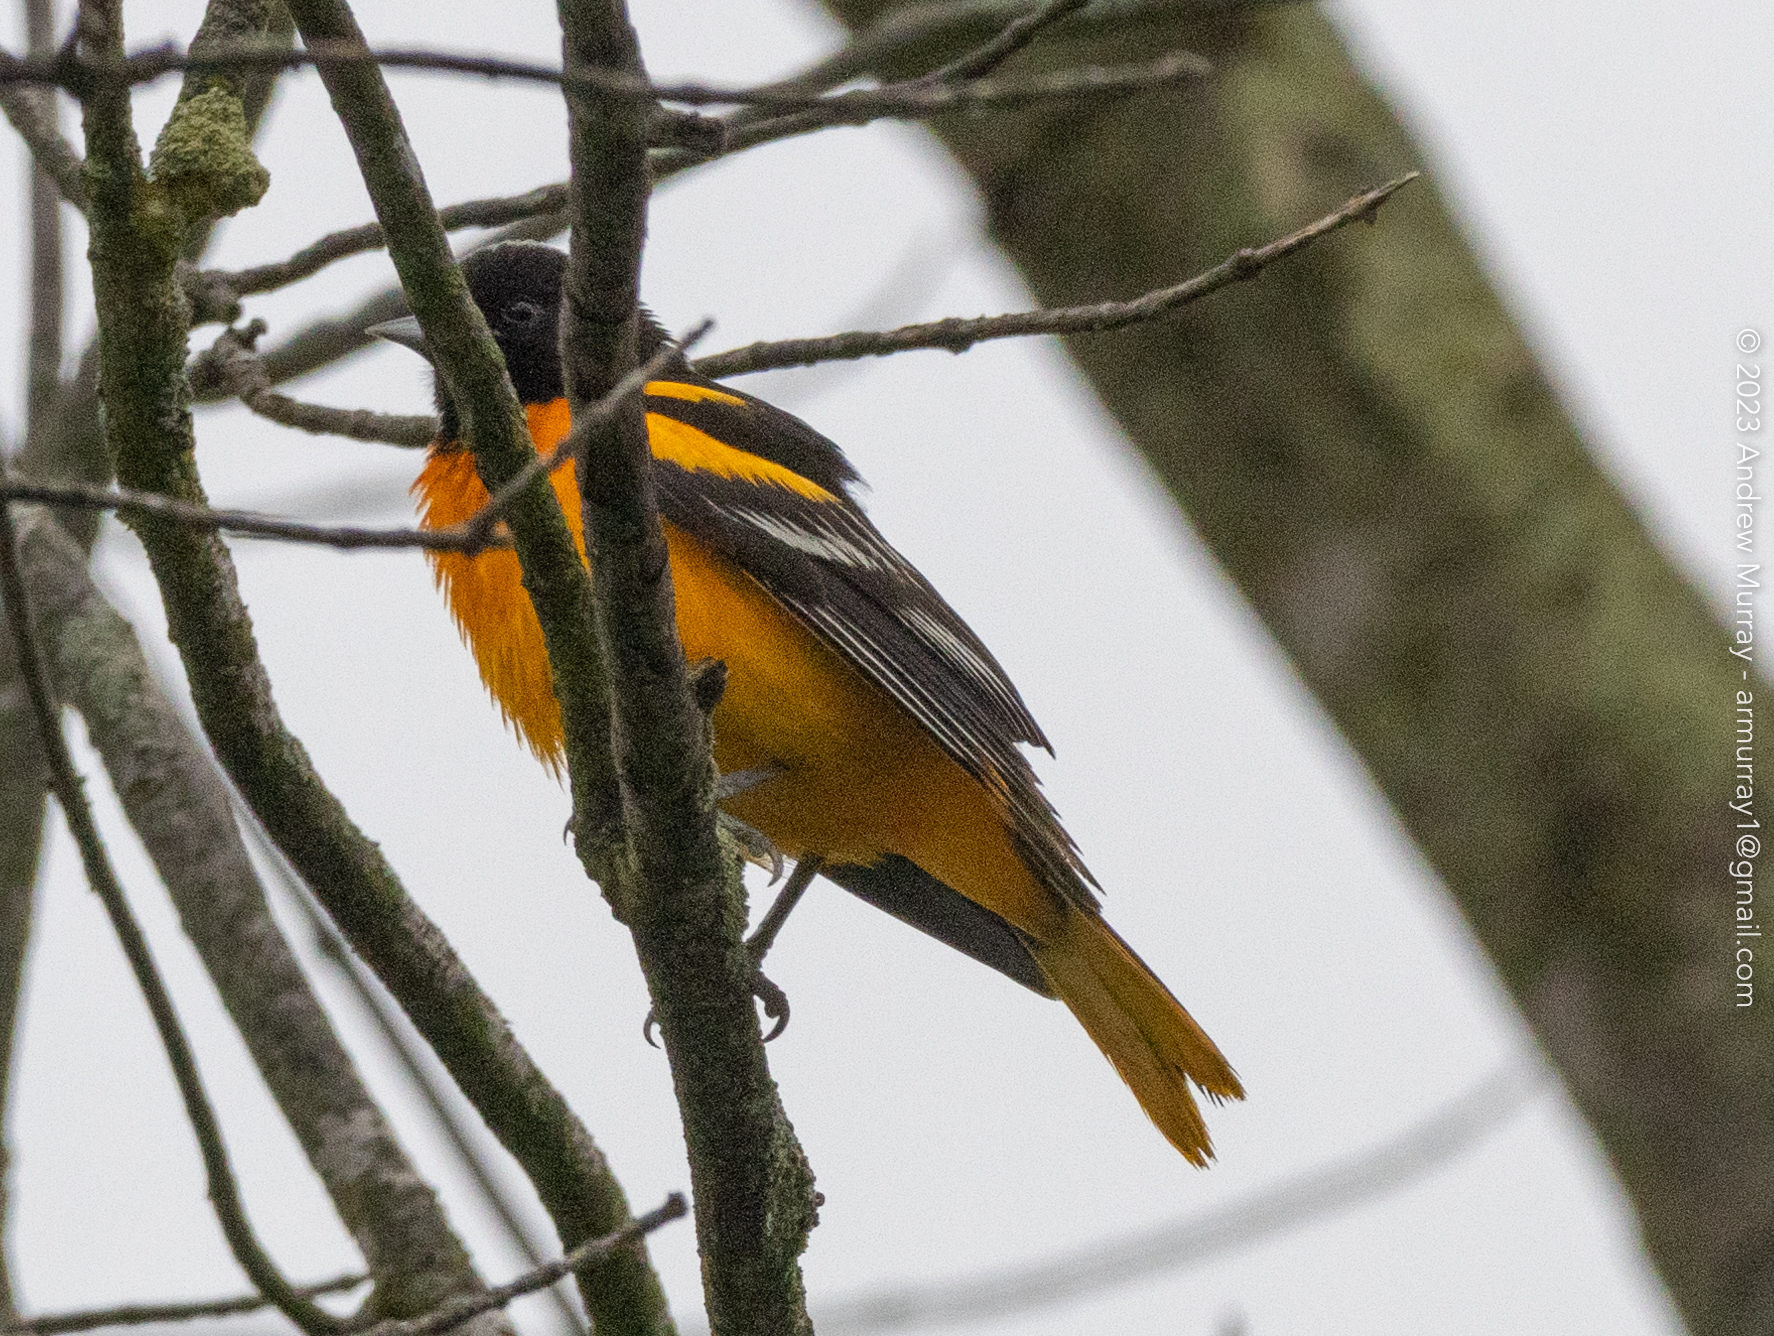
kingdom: Animalia
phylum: Chordata
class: Aves
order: Passeriformes
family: Icteridae
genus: Icterus
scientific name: Icterus galbula
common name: Baltimore oriole
